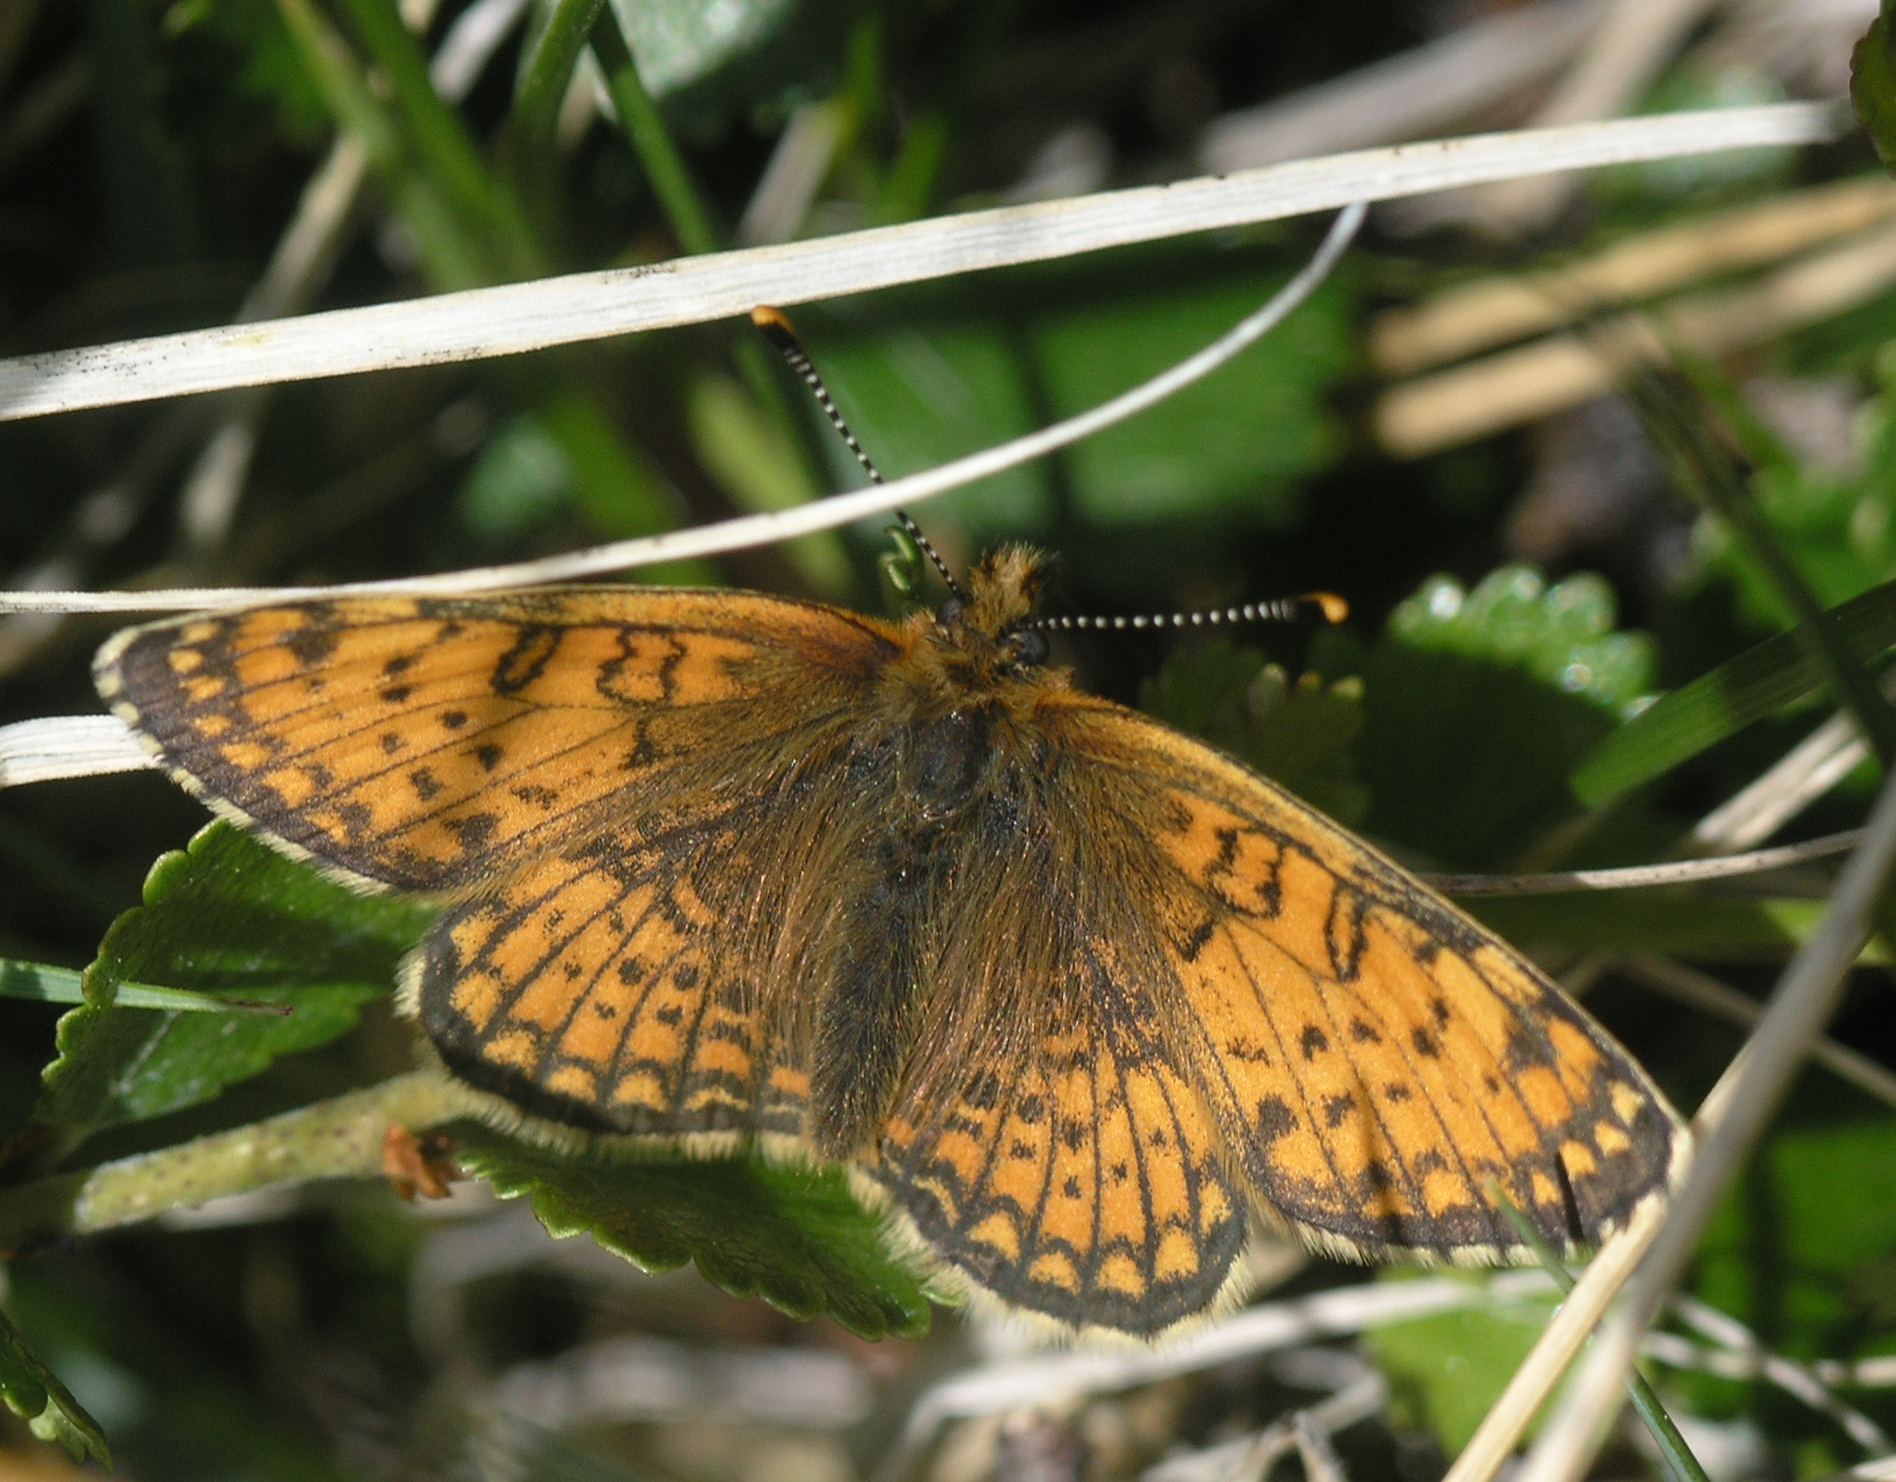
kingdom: Animalia
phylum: Arthropoda
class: Insecta
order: Lepidoptera
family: Nymphalidae
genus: Melitaea
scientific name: Melitaea arcesia
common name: Blackvein fritillary
